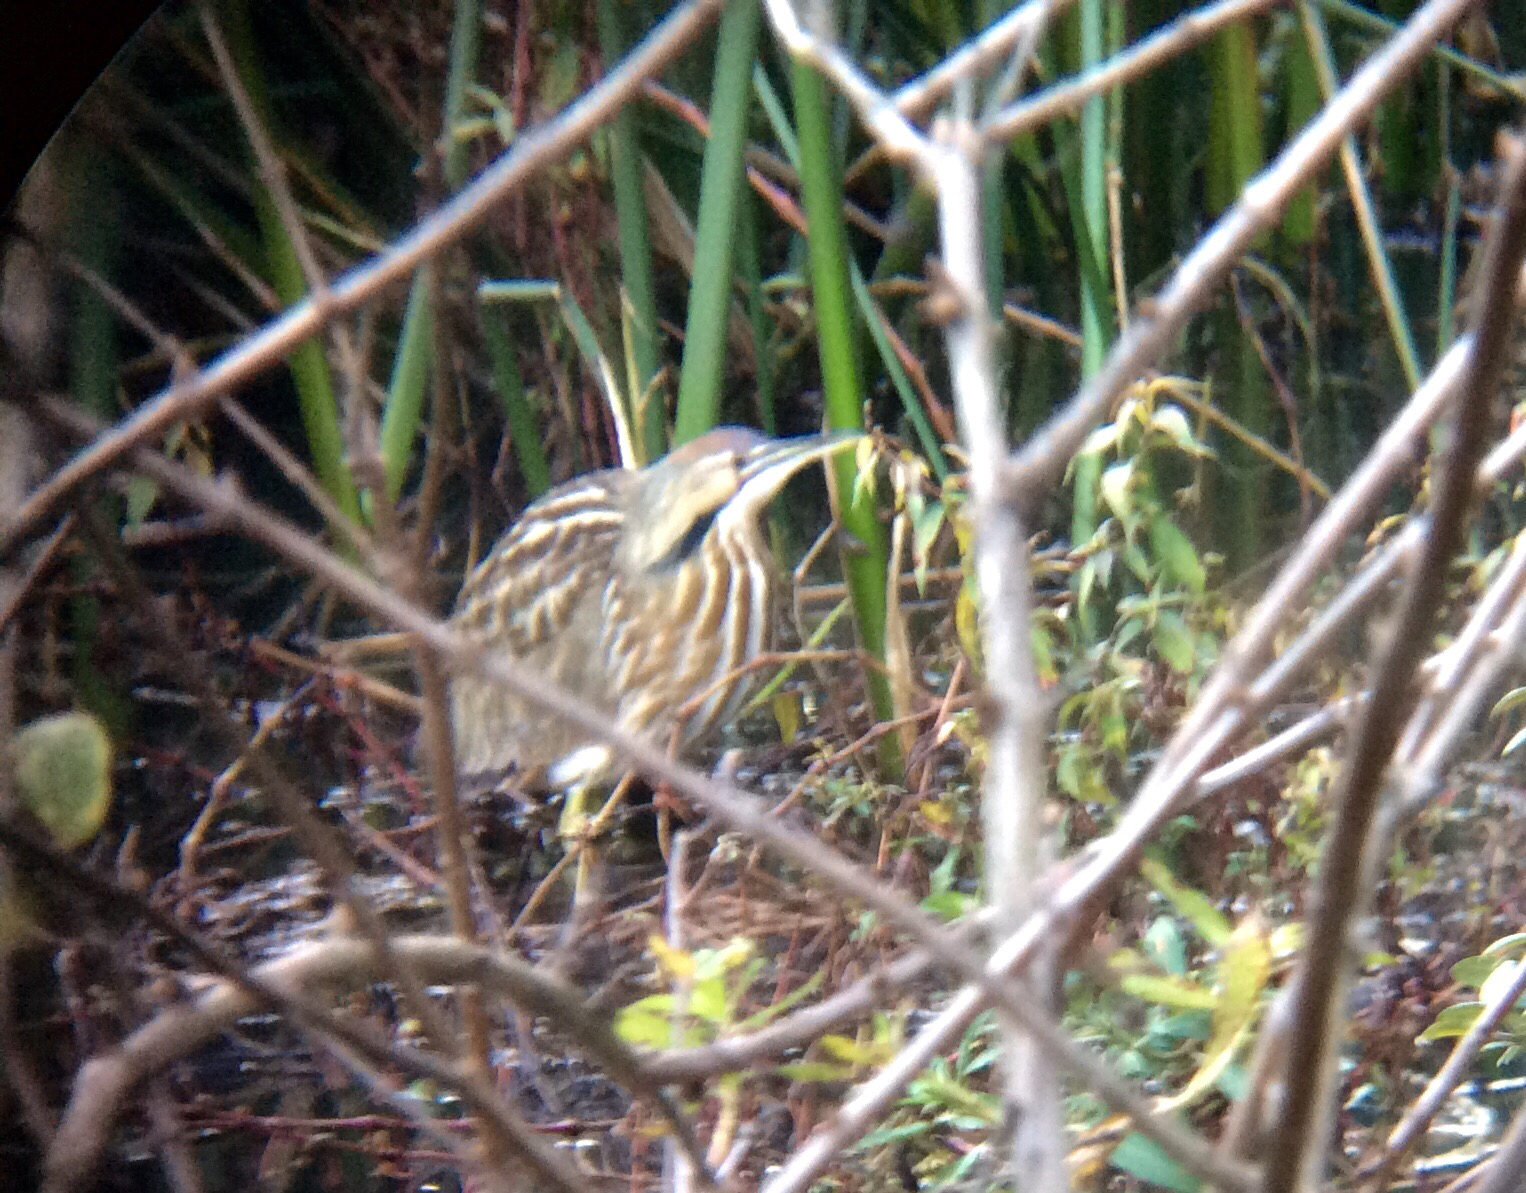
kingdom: Animalia
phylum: Chordata
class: Aves
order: Pelecaniformes
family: Ardeidae
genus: Botaurus
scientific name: Botaurus lentiginosus
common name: American bittern
